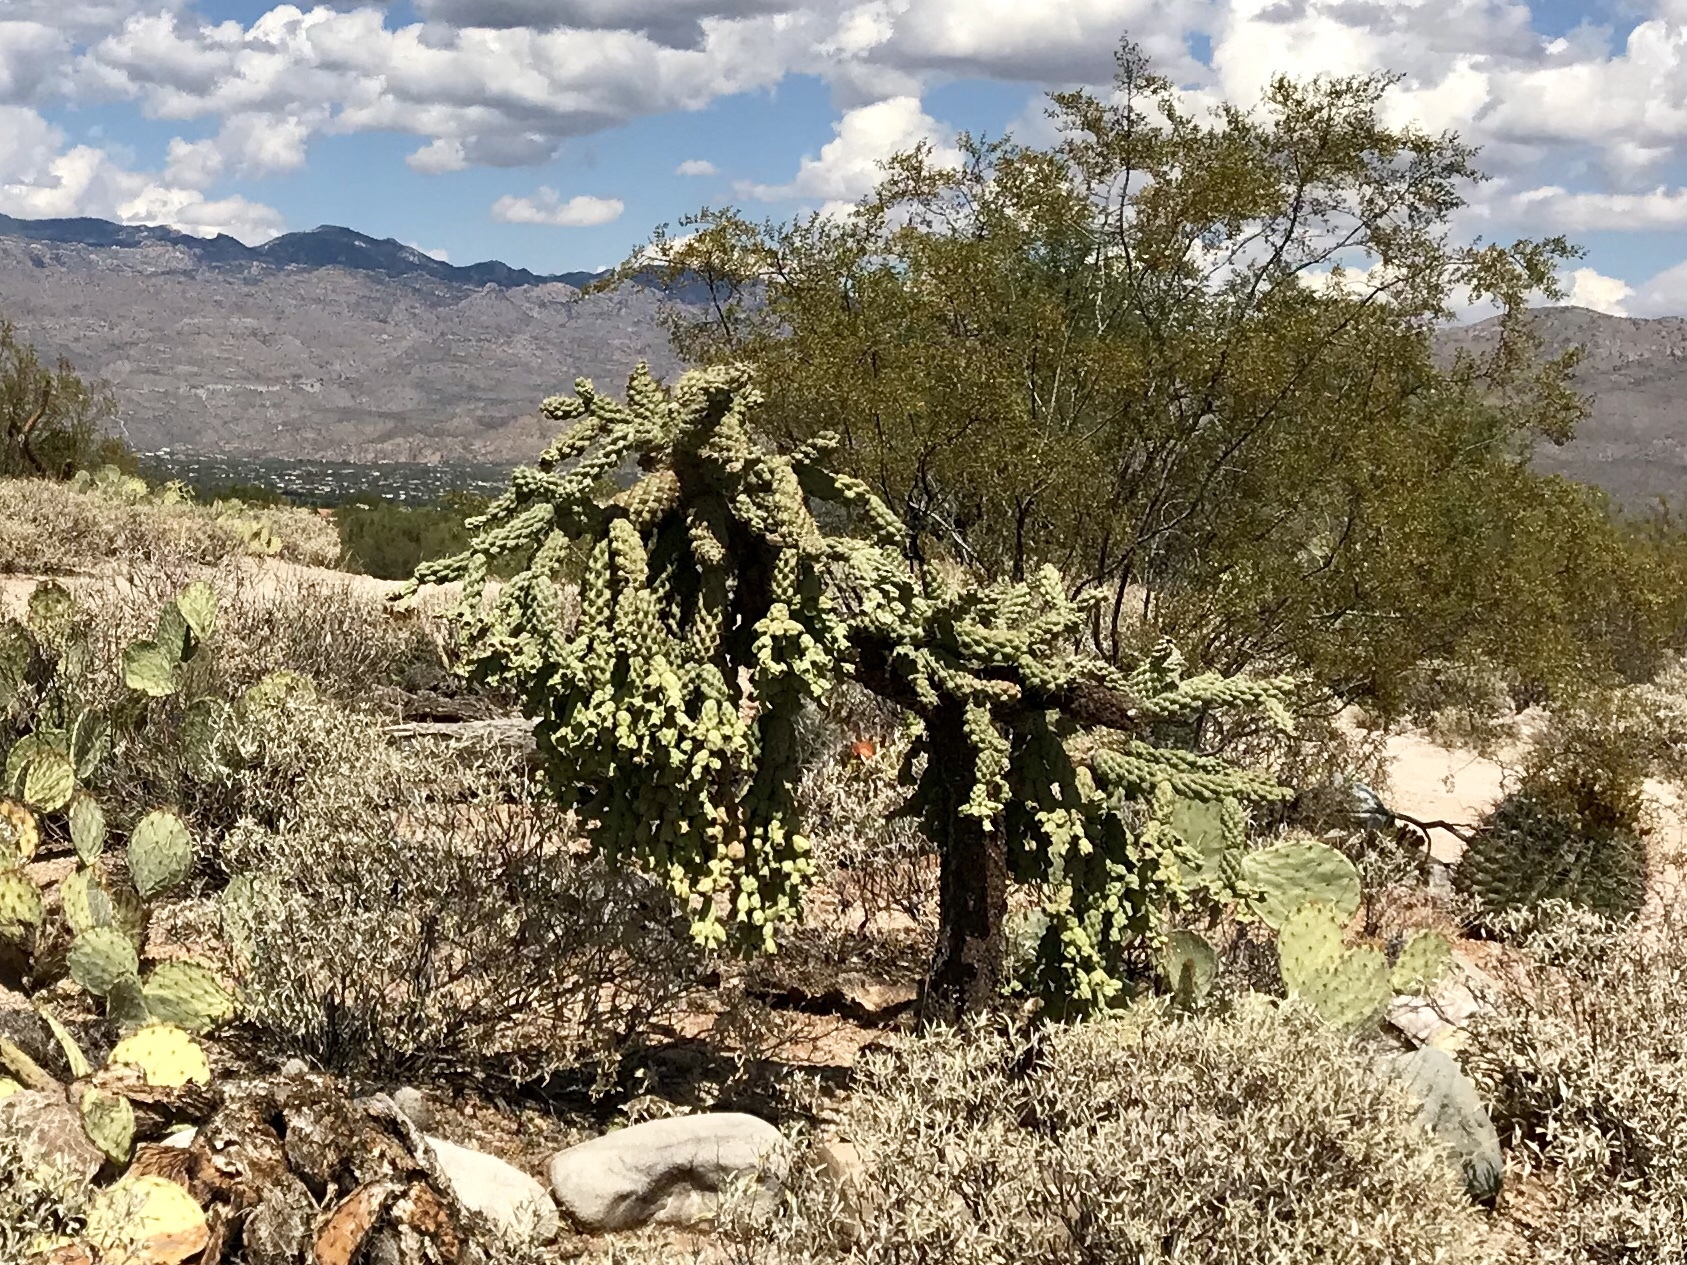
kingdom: Plantae
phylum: Tracheophyta
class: Magnoliopsida
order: Caryophyllales
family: Cactaceae
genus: Cylindropuntia
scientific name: Cylindropuntia fulgida
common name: Jumping cholla
